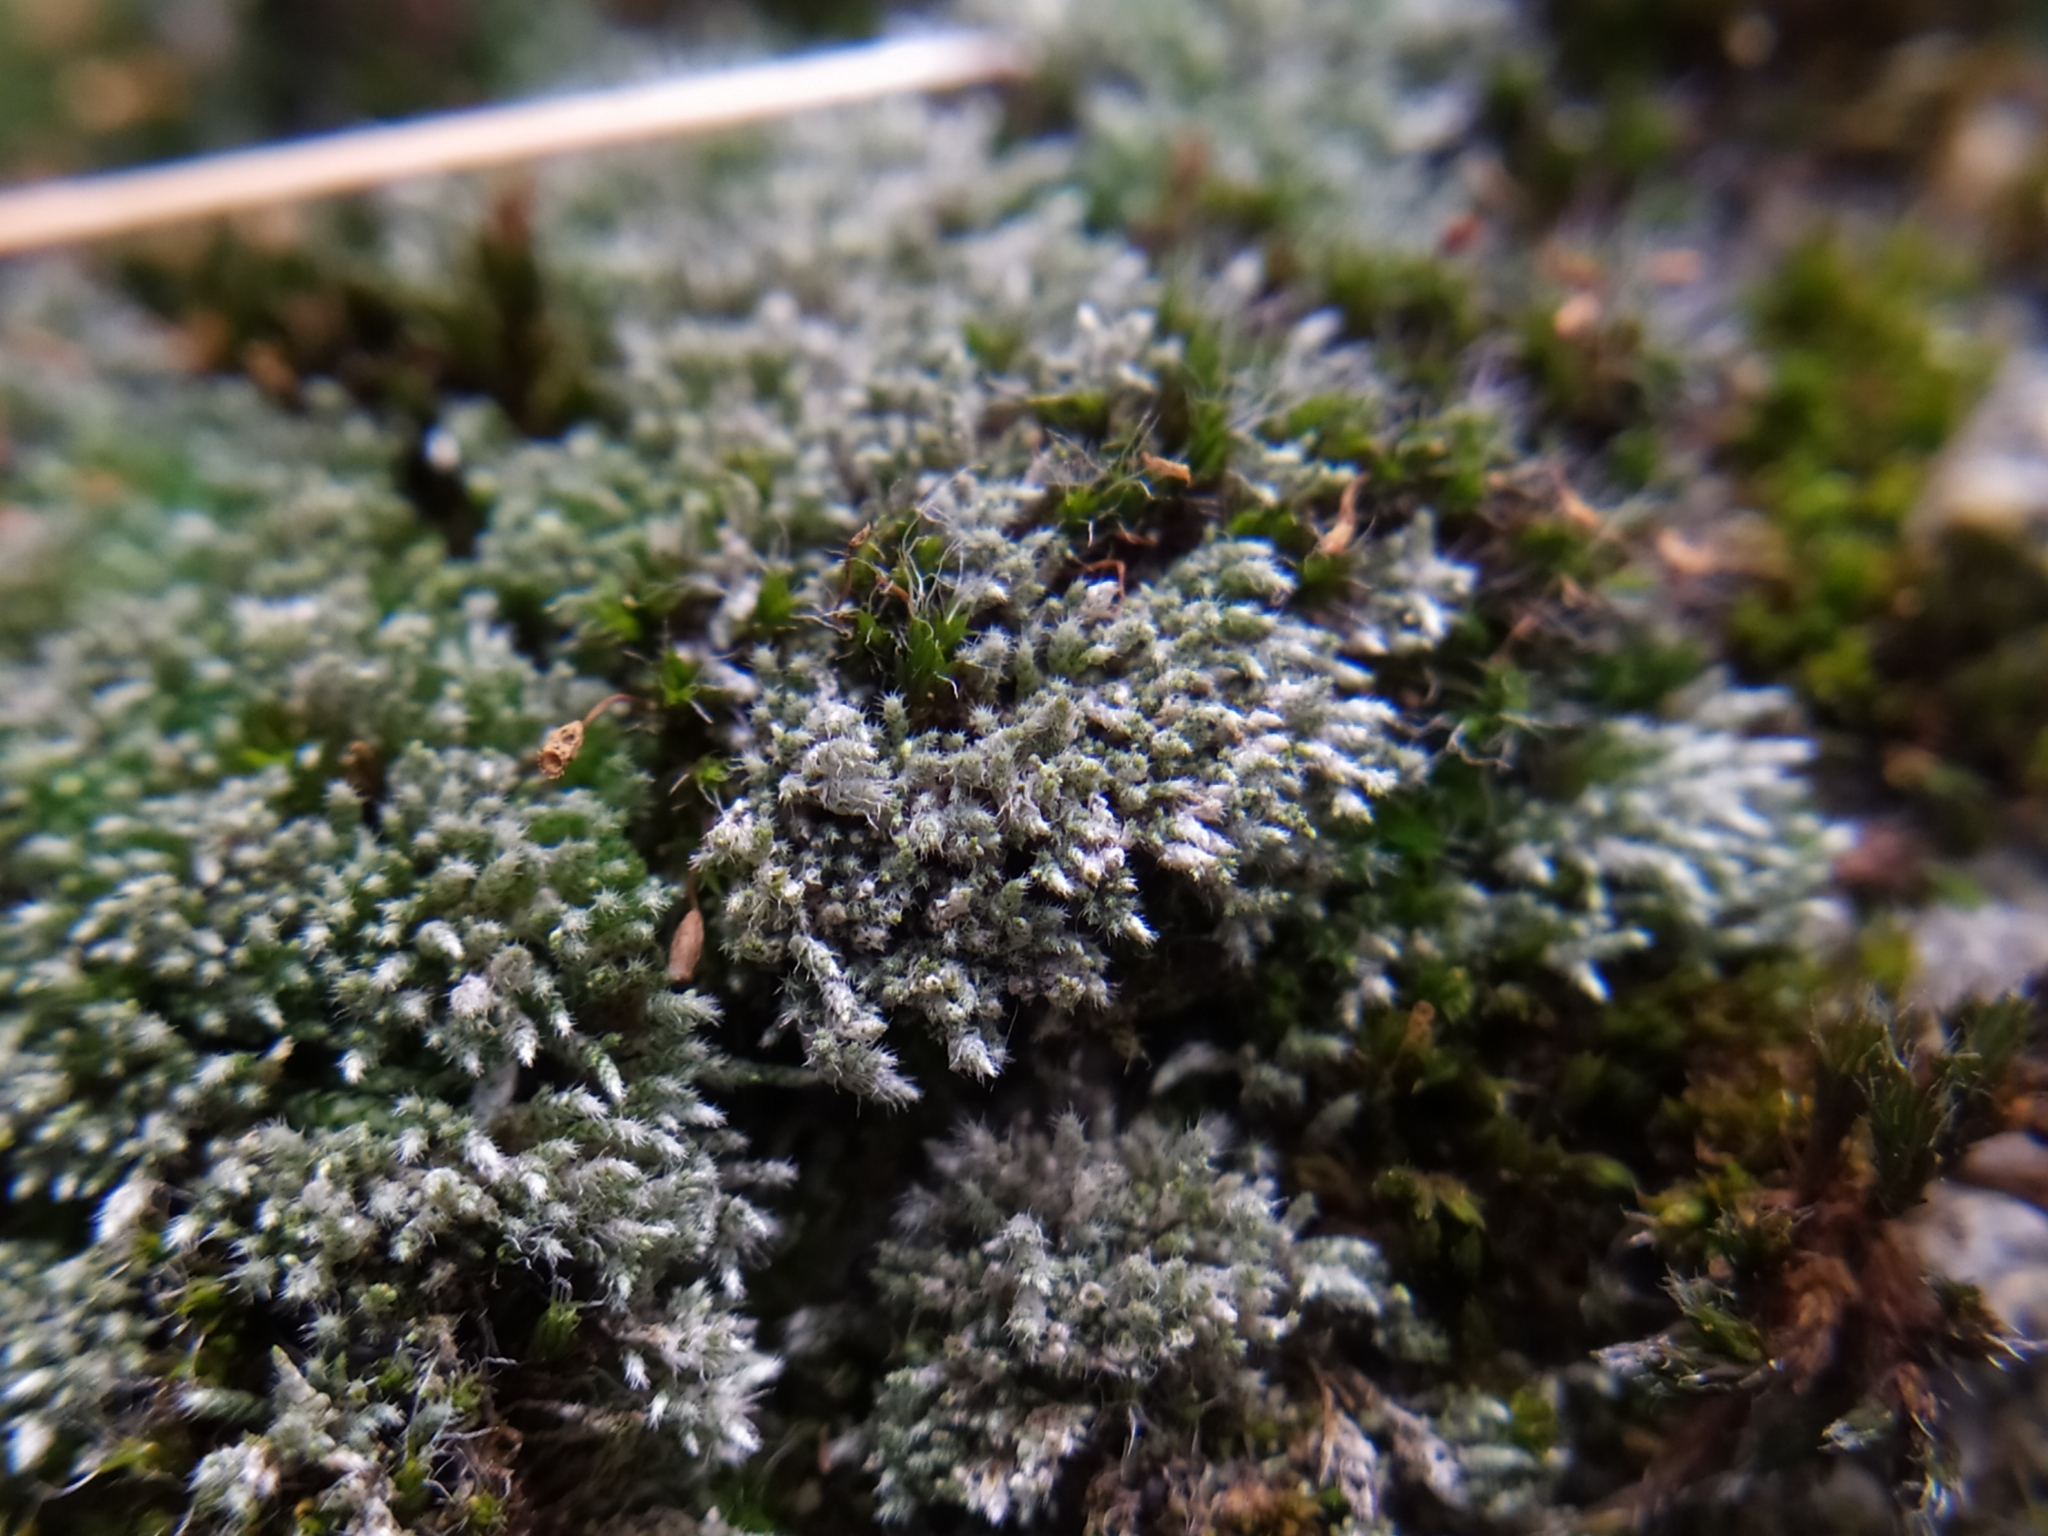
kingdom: Plantae
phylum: Bryophyta
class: Bryopsida
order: Bryales
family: Bryaceae
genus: Bryum
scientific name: Bryum argenteum
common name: Silver-moss
